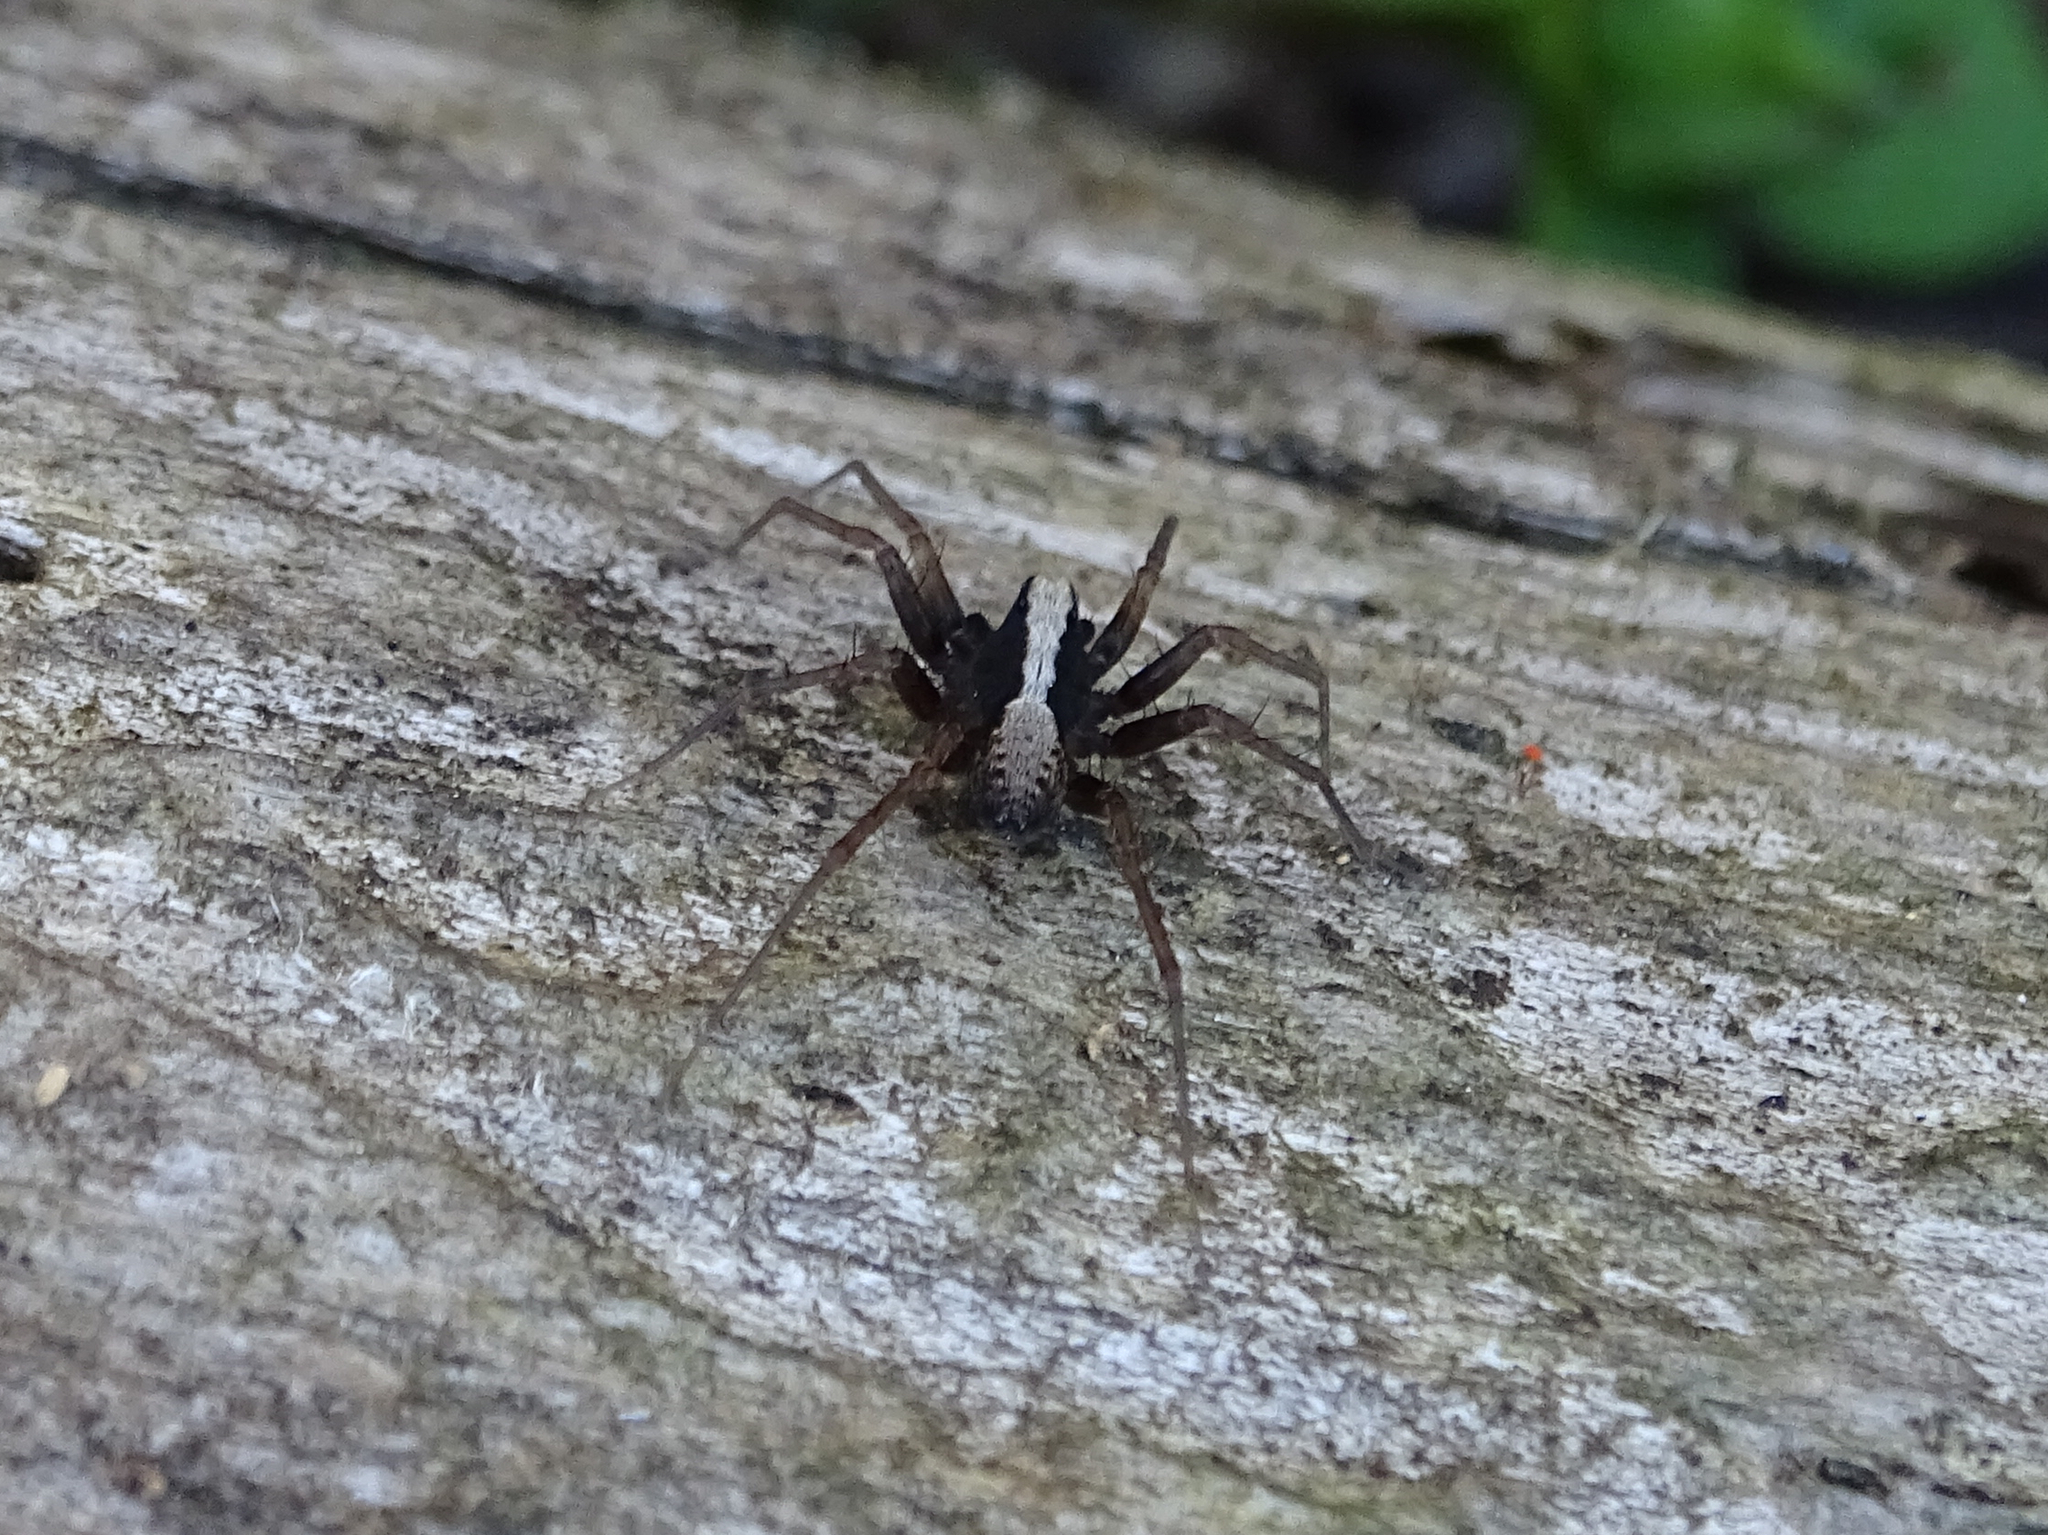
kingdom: Animalia
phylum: Arthropoda
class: Arachnida
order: Araneae
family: Lycosidae
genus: Pardosa
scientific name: Pardosa
